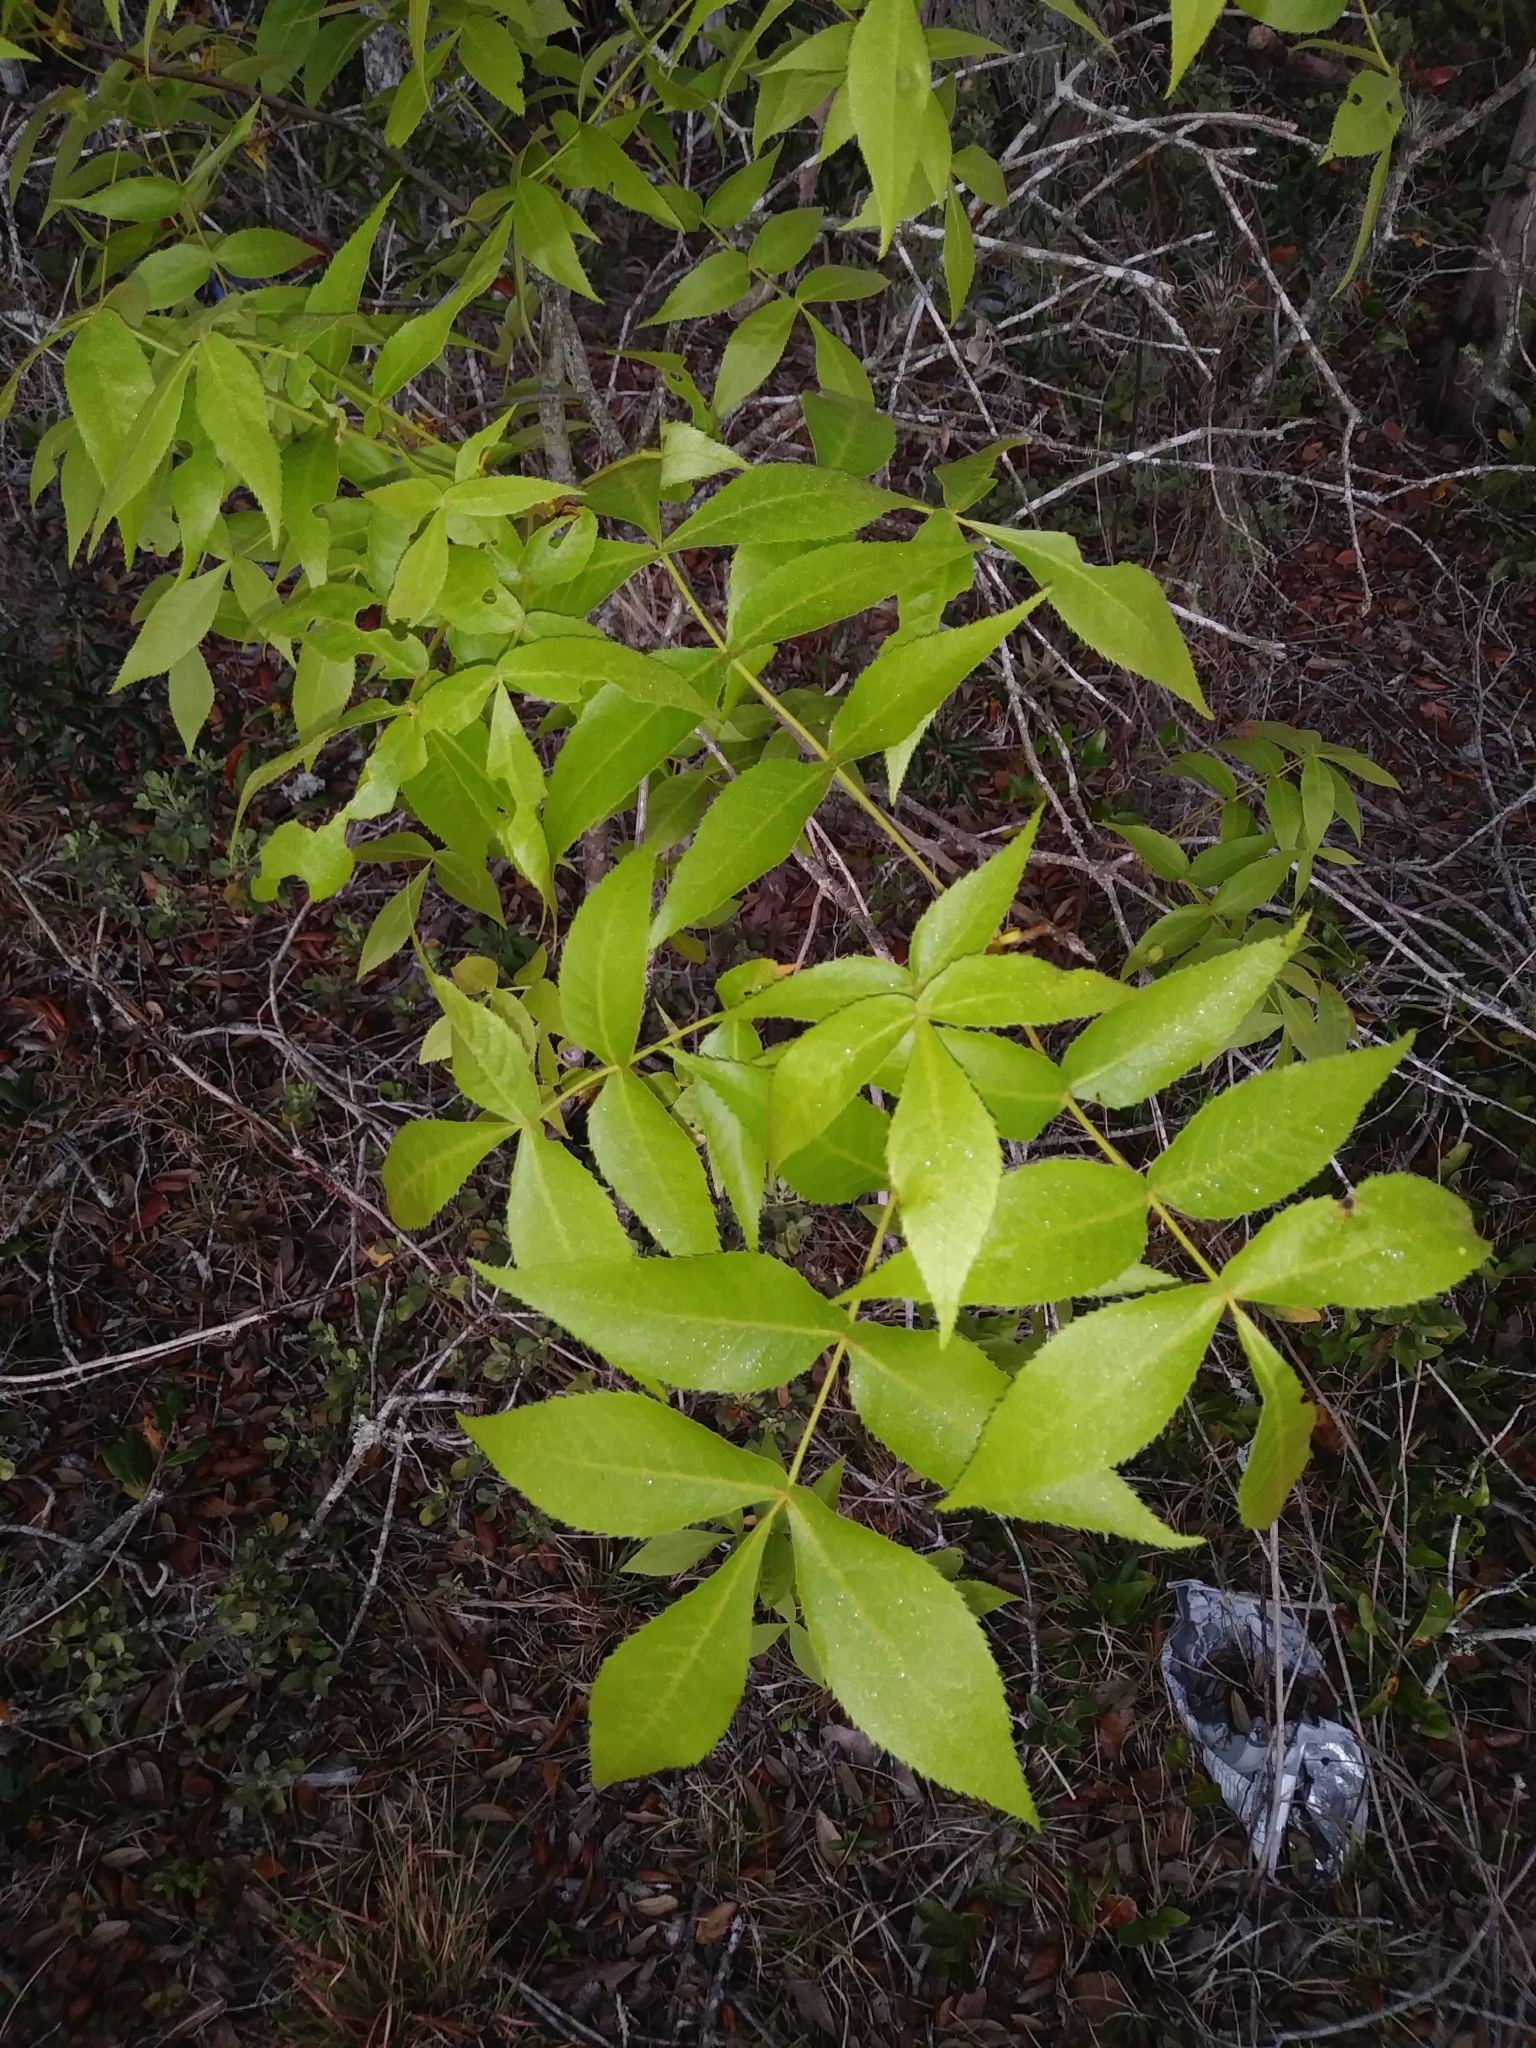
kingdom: Plantae
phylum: Tracheophyta
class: Magnoliopsida
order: Fagales
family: Juglandaceae
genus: Carya
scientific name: Carya floridana
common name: Scrub hickory
